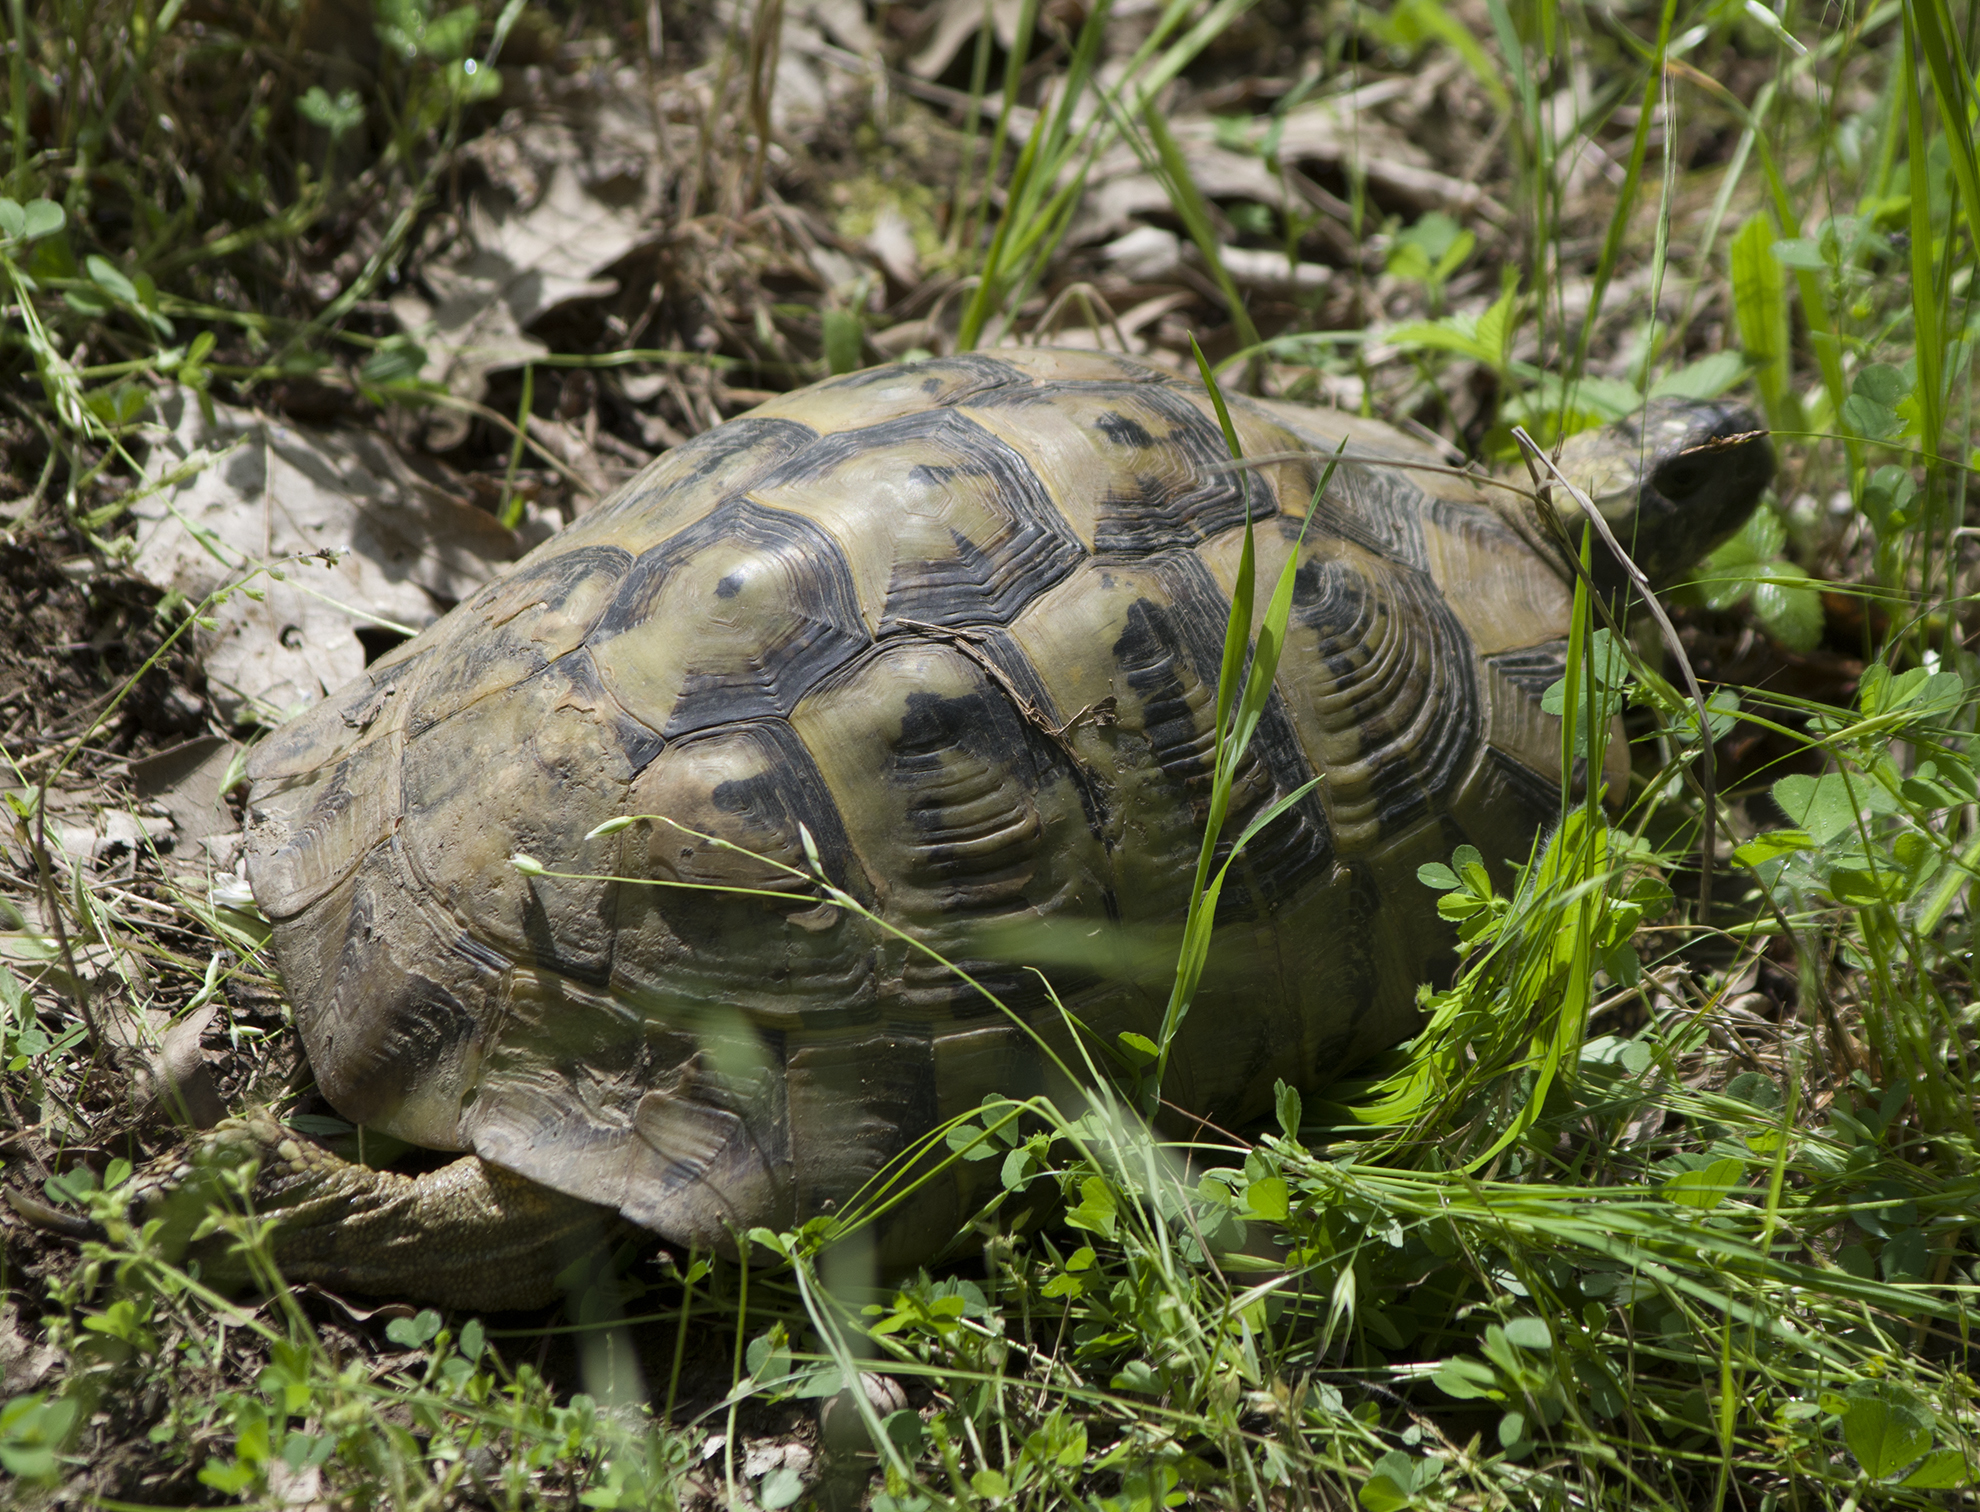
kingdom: Animalia
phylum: Chordata
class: Testudines
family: Testudinidae
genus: Testudo
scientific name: Testudo hermanni
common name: Hermann's tortoise
